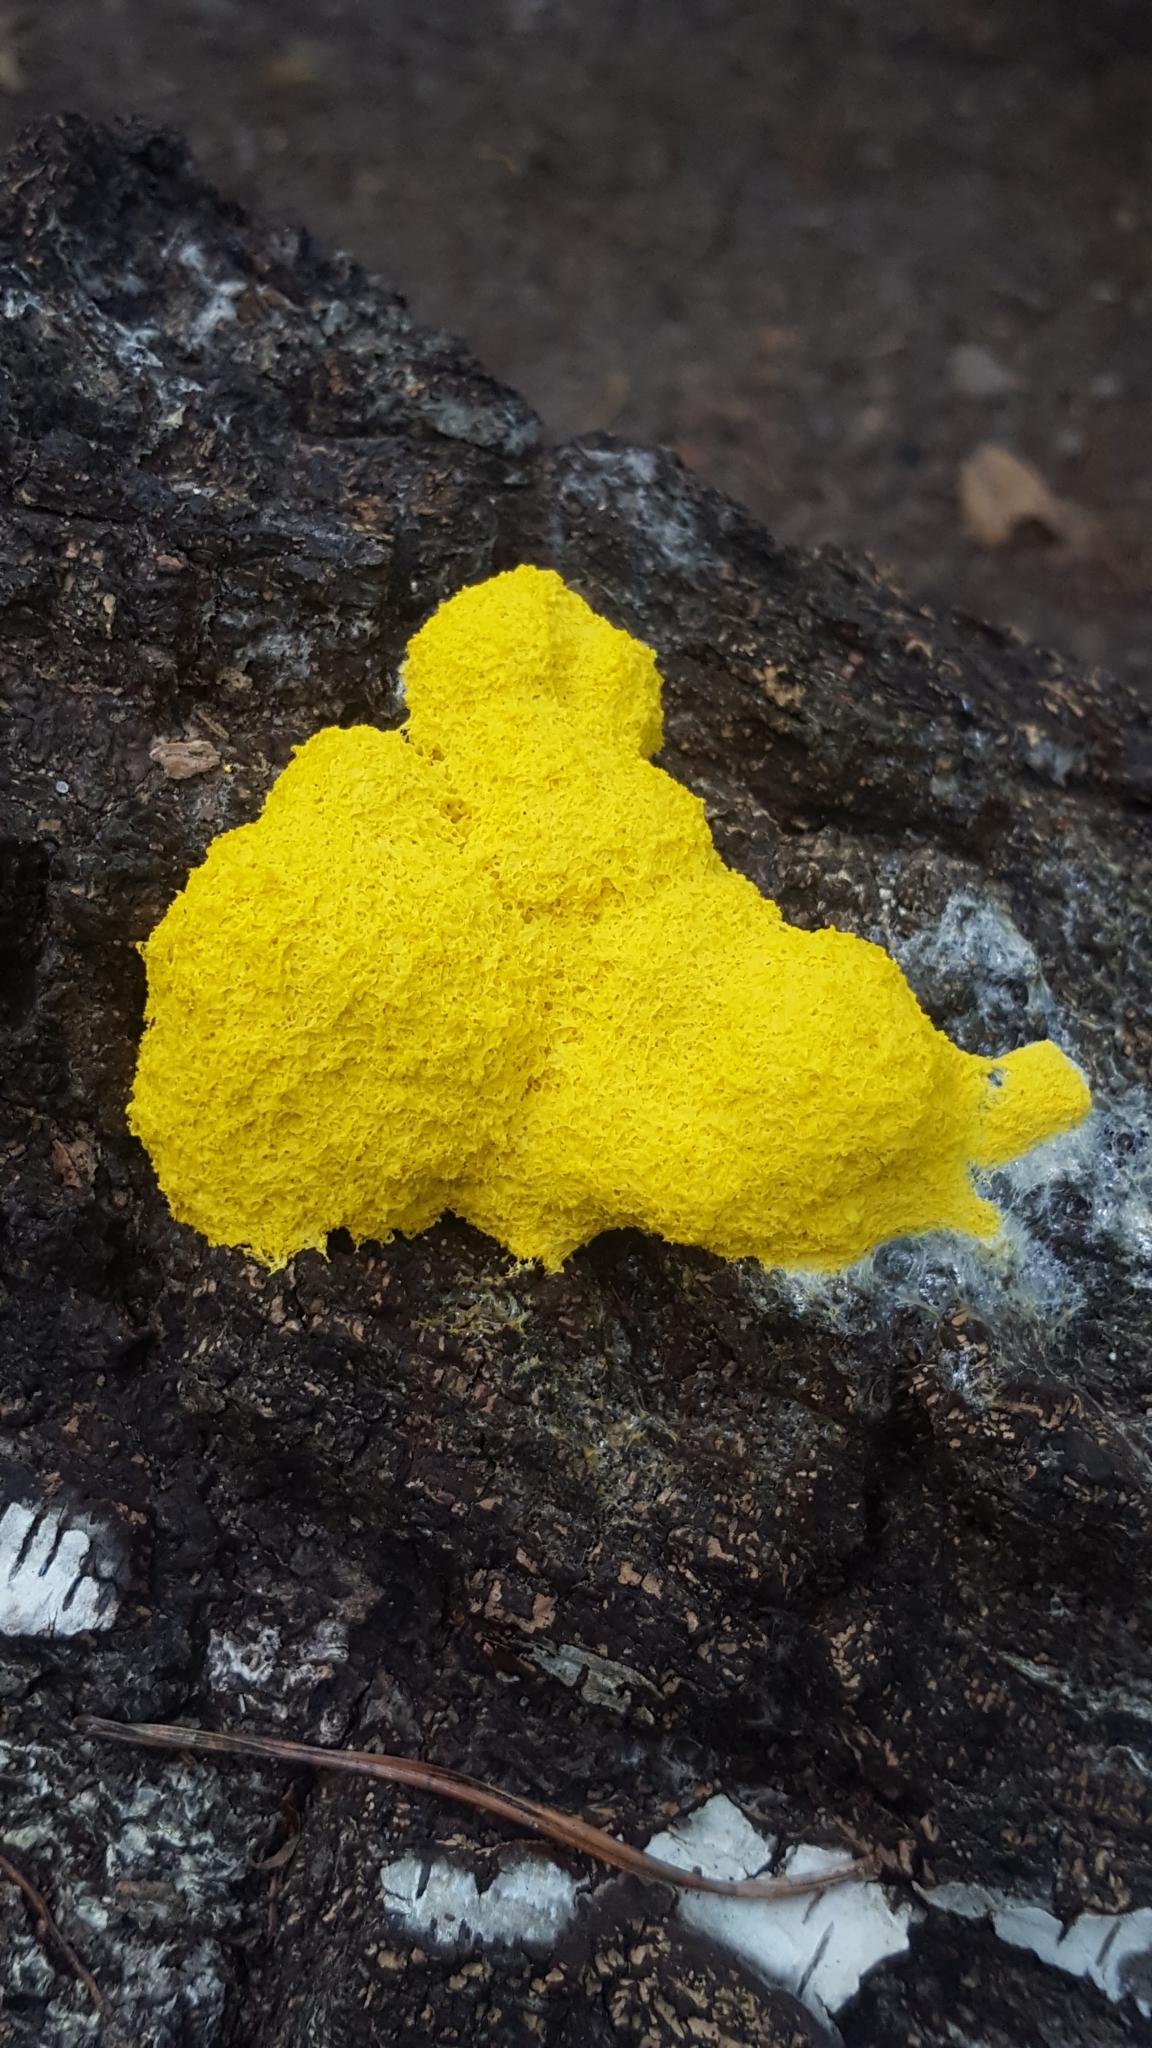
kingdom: Protozoa
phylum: Mycetozoa
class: Myxomycetes
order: Physarales
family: Physaraceae
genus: Fuligo
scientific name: Fuligo septica
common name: Dog vomit slime mold
